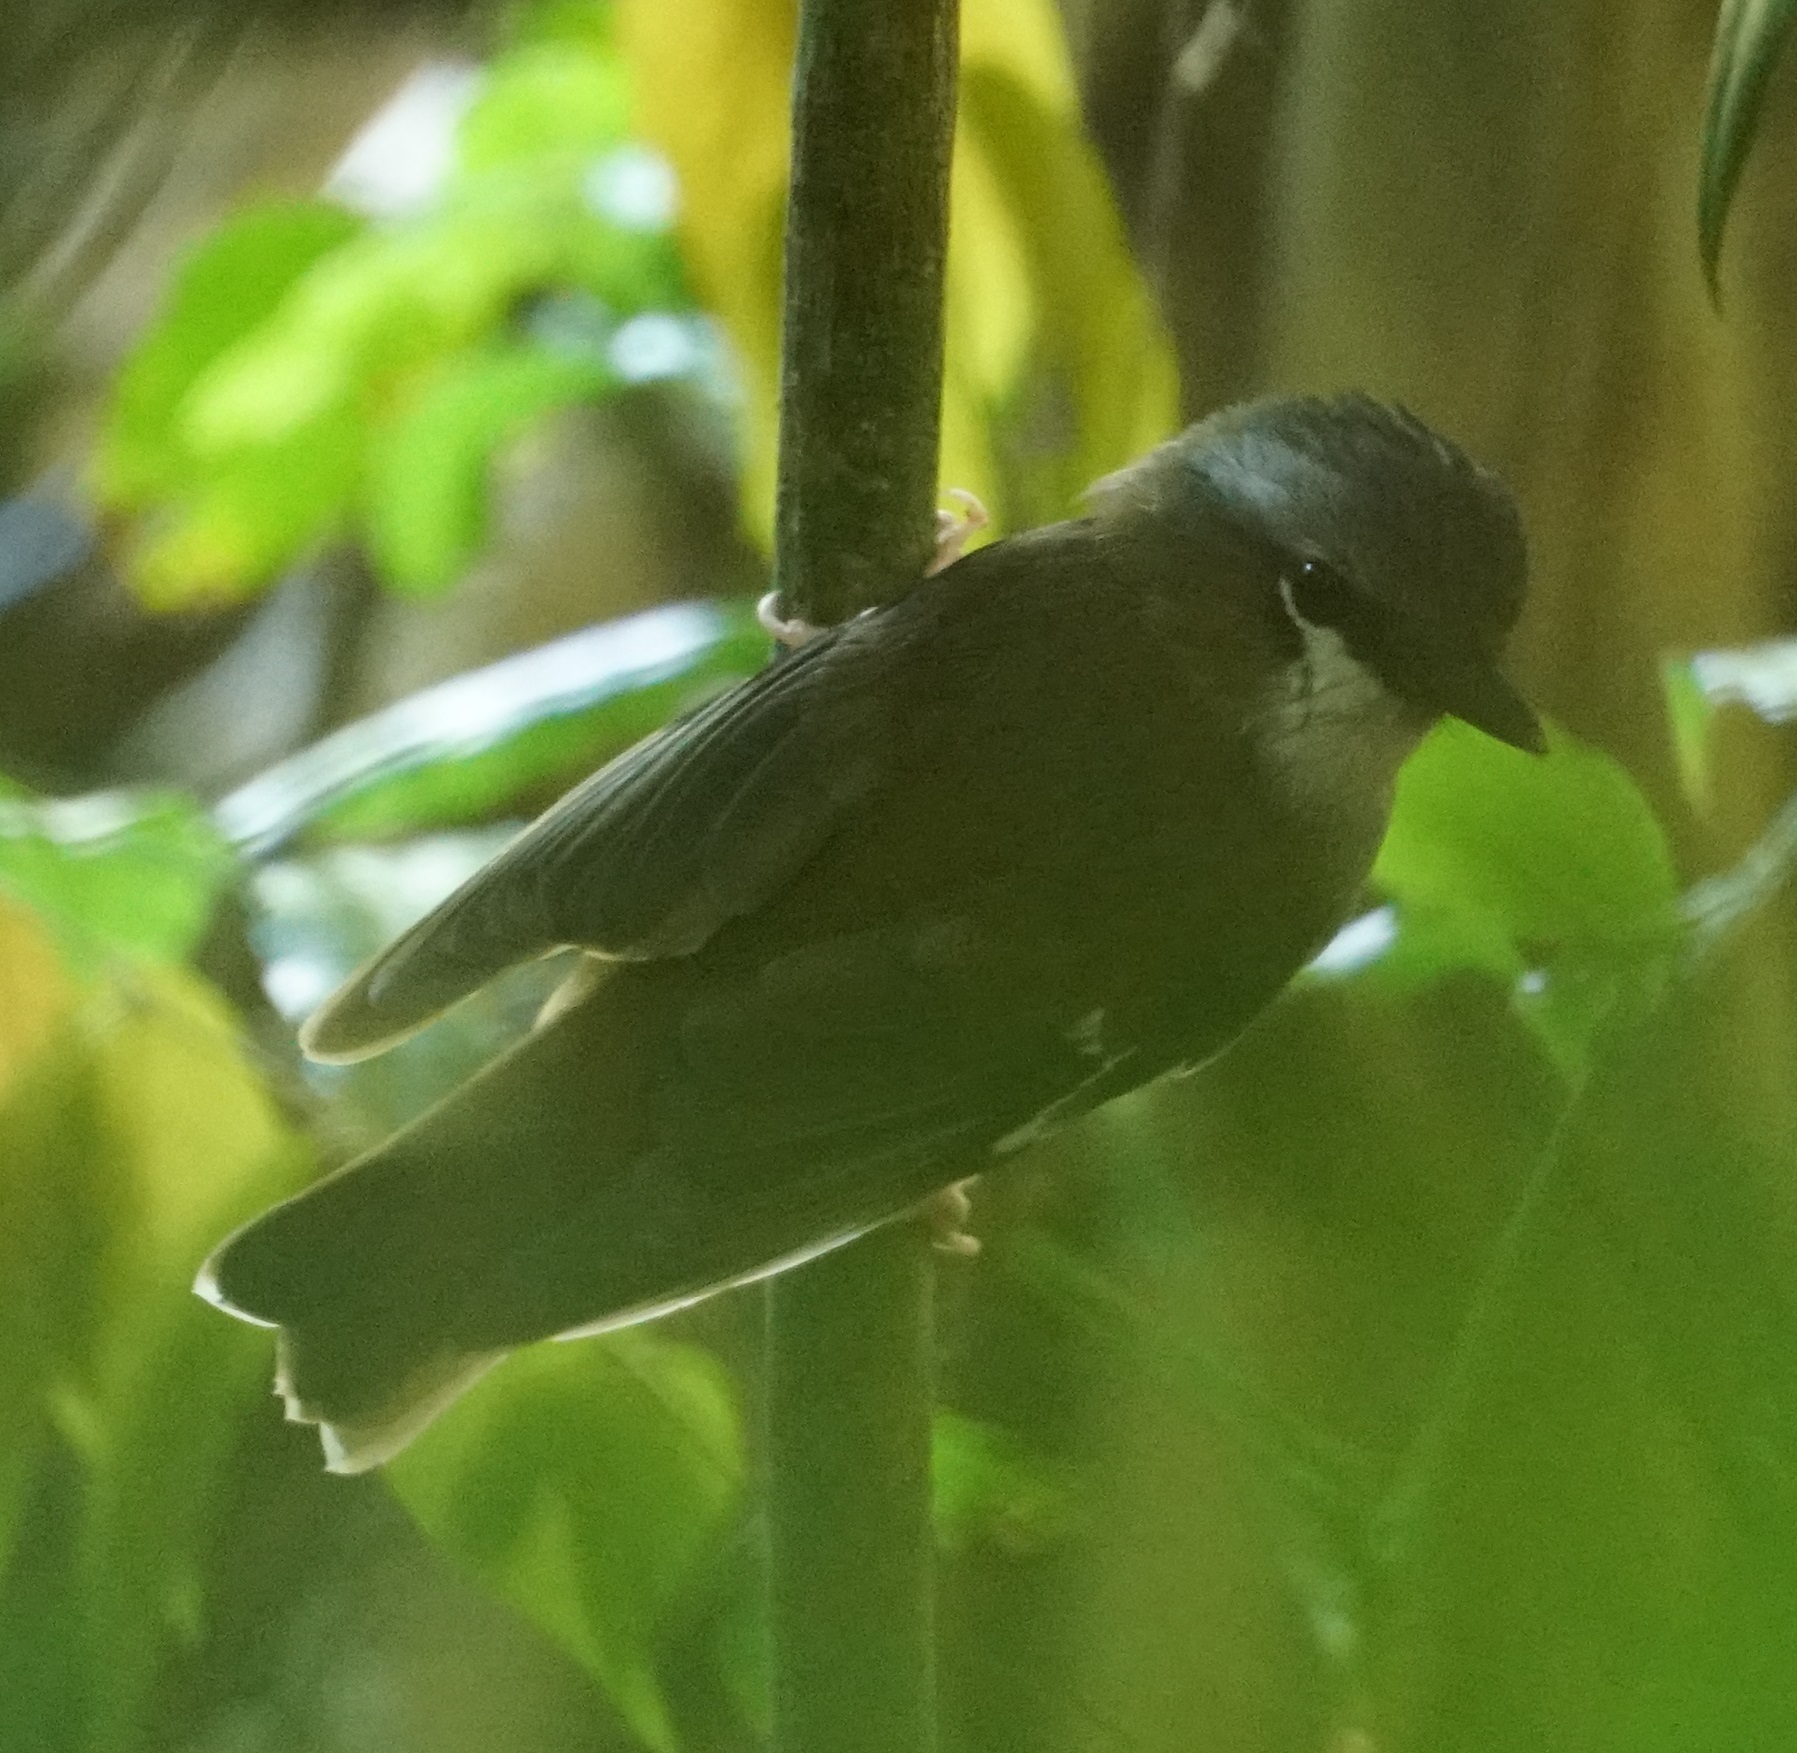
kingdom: Animalia
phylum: Chordata
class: Aves
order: Passeriformes
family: Petroicidae
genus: Eopsaltria
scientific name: Eopsaltria
